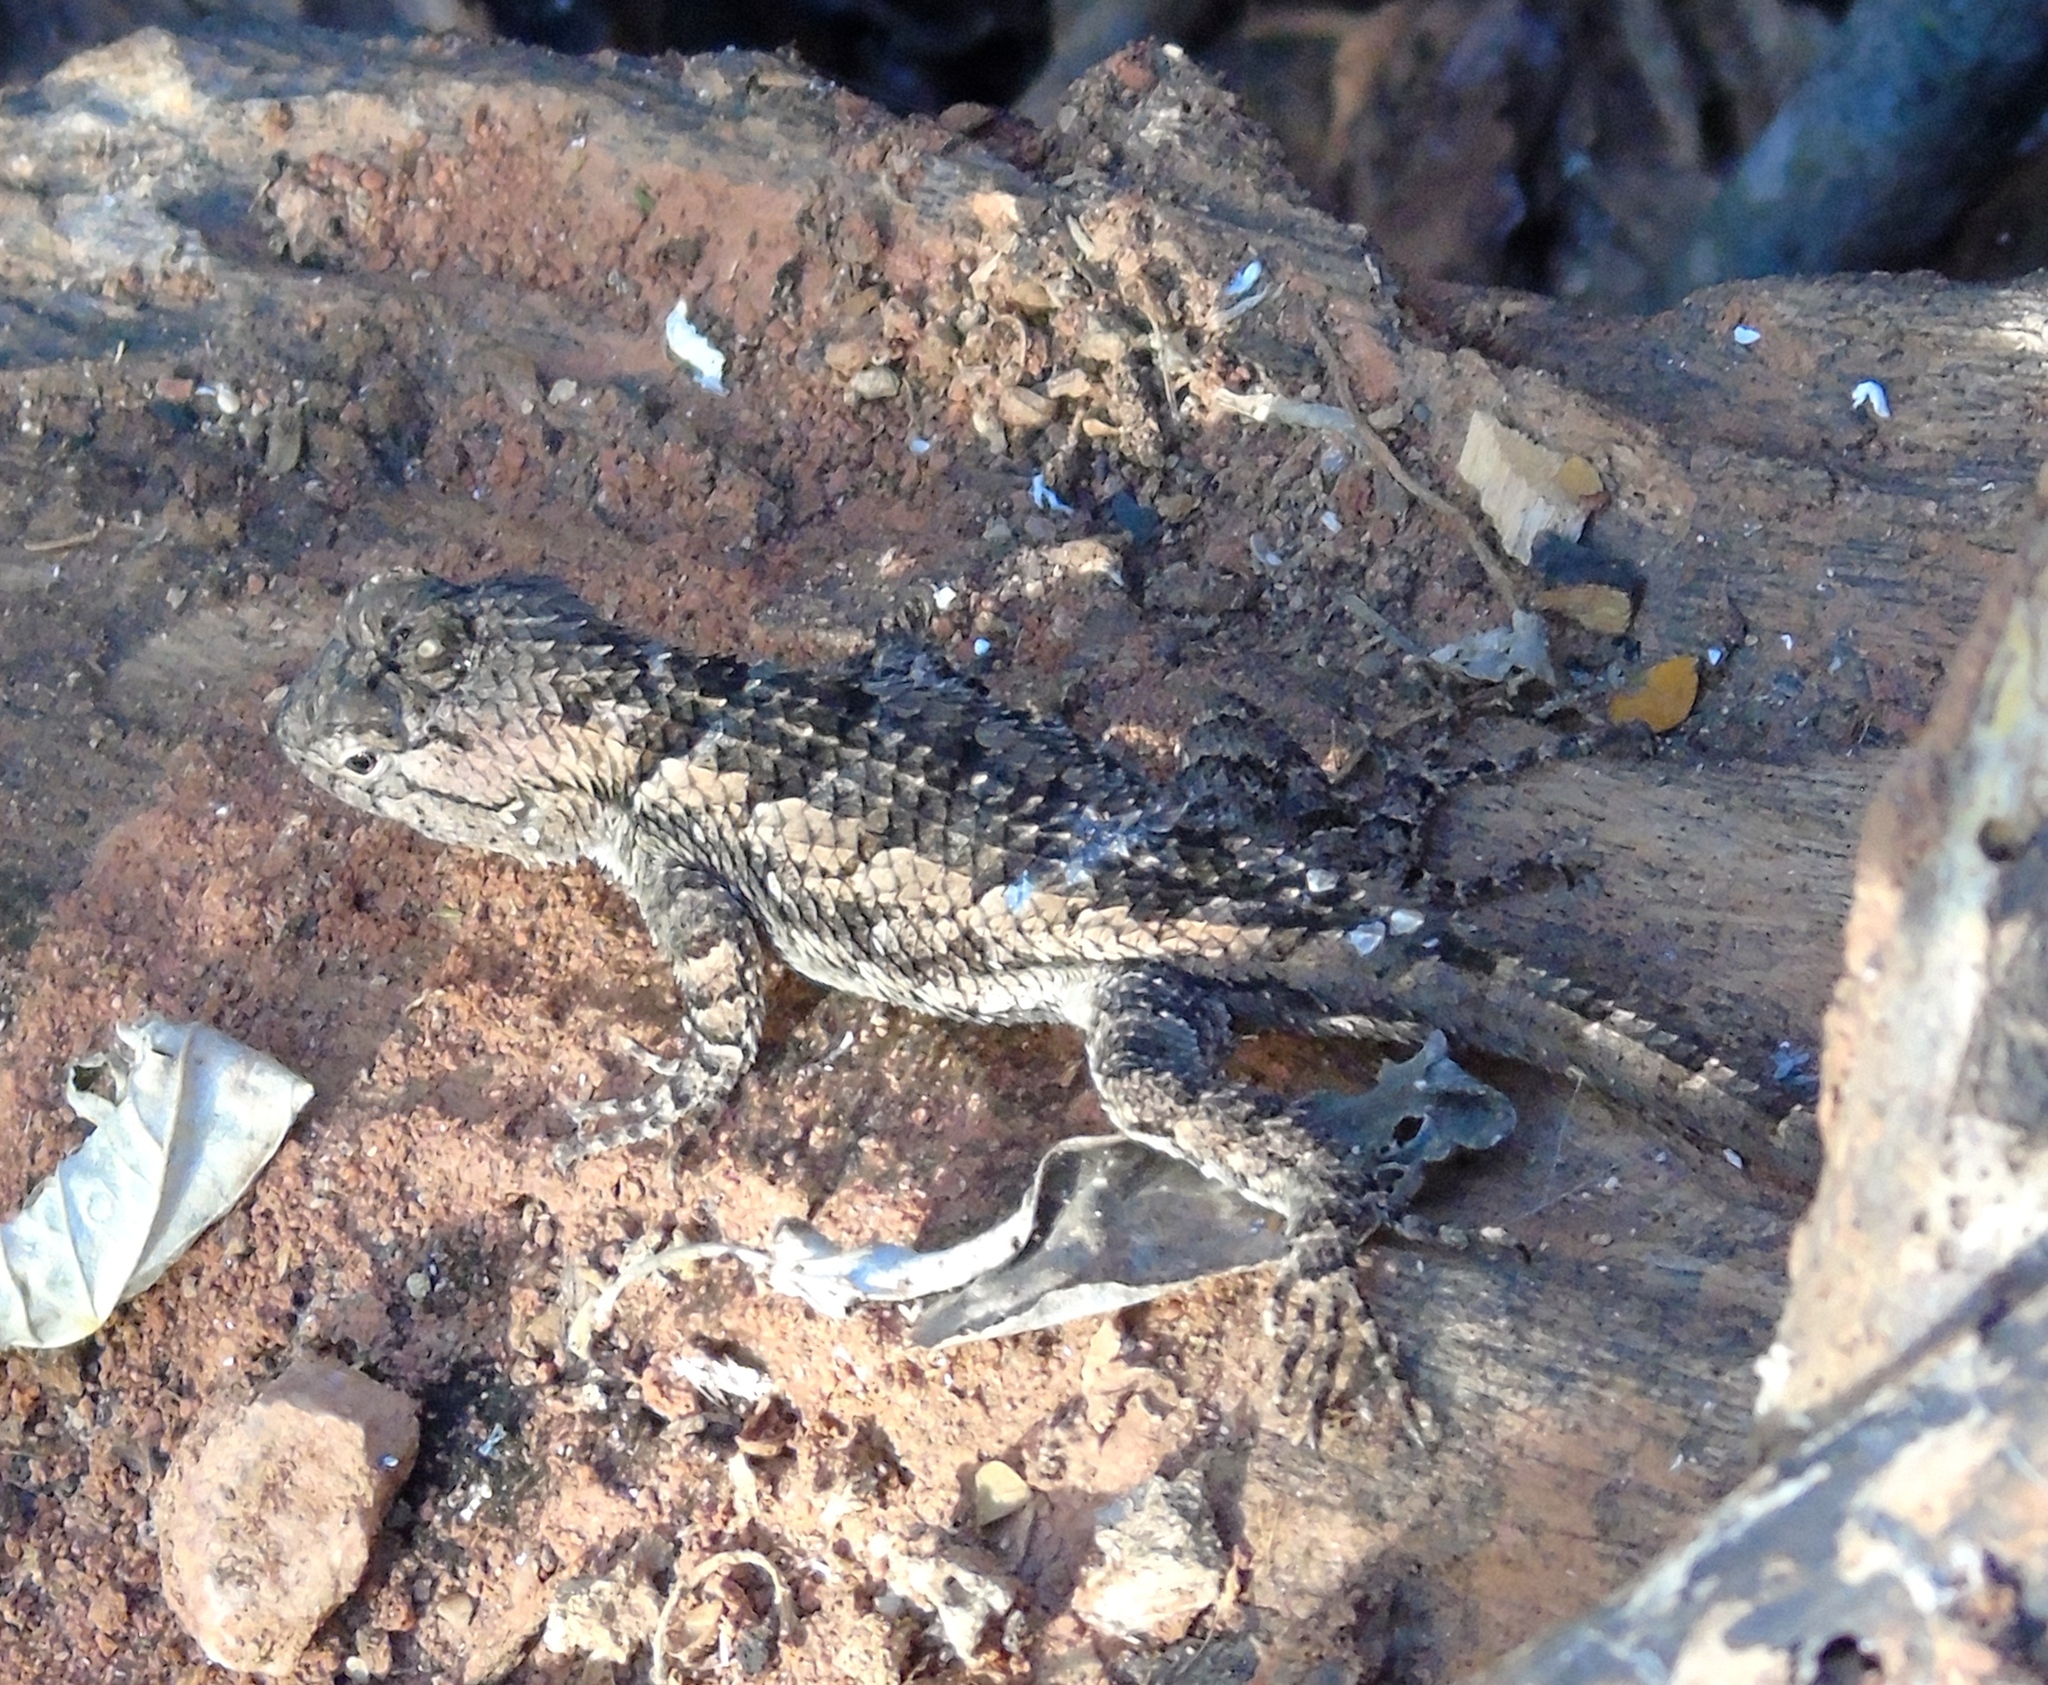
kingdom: Animalia
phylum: Chordata
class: Squamata
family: Phrynosomatidae
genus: Sceloporus
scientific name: Sceloporus clarkii
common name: Clark's spiny lizard
